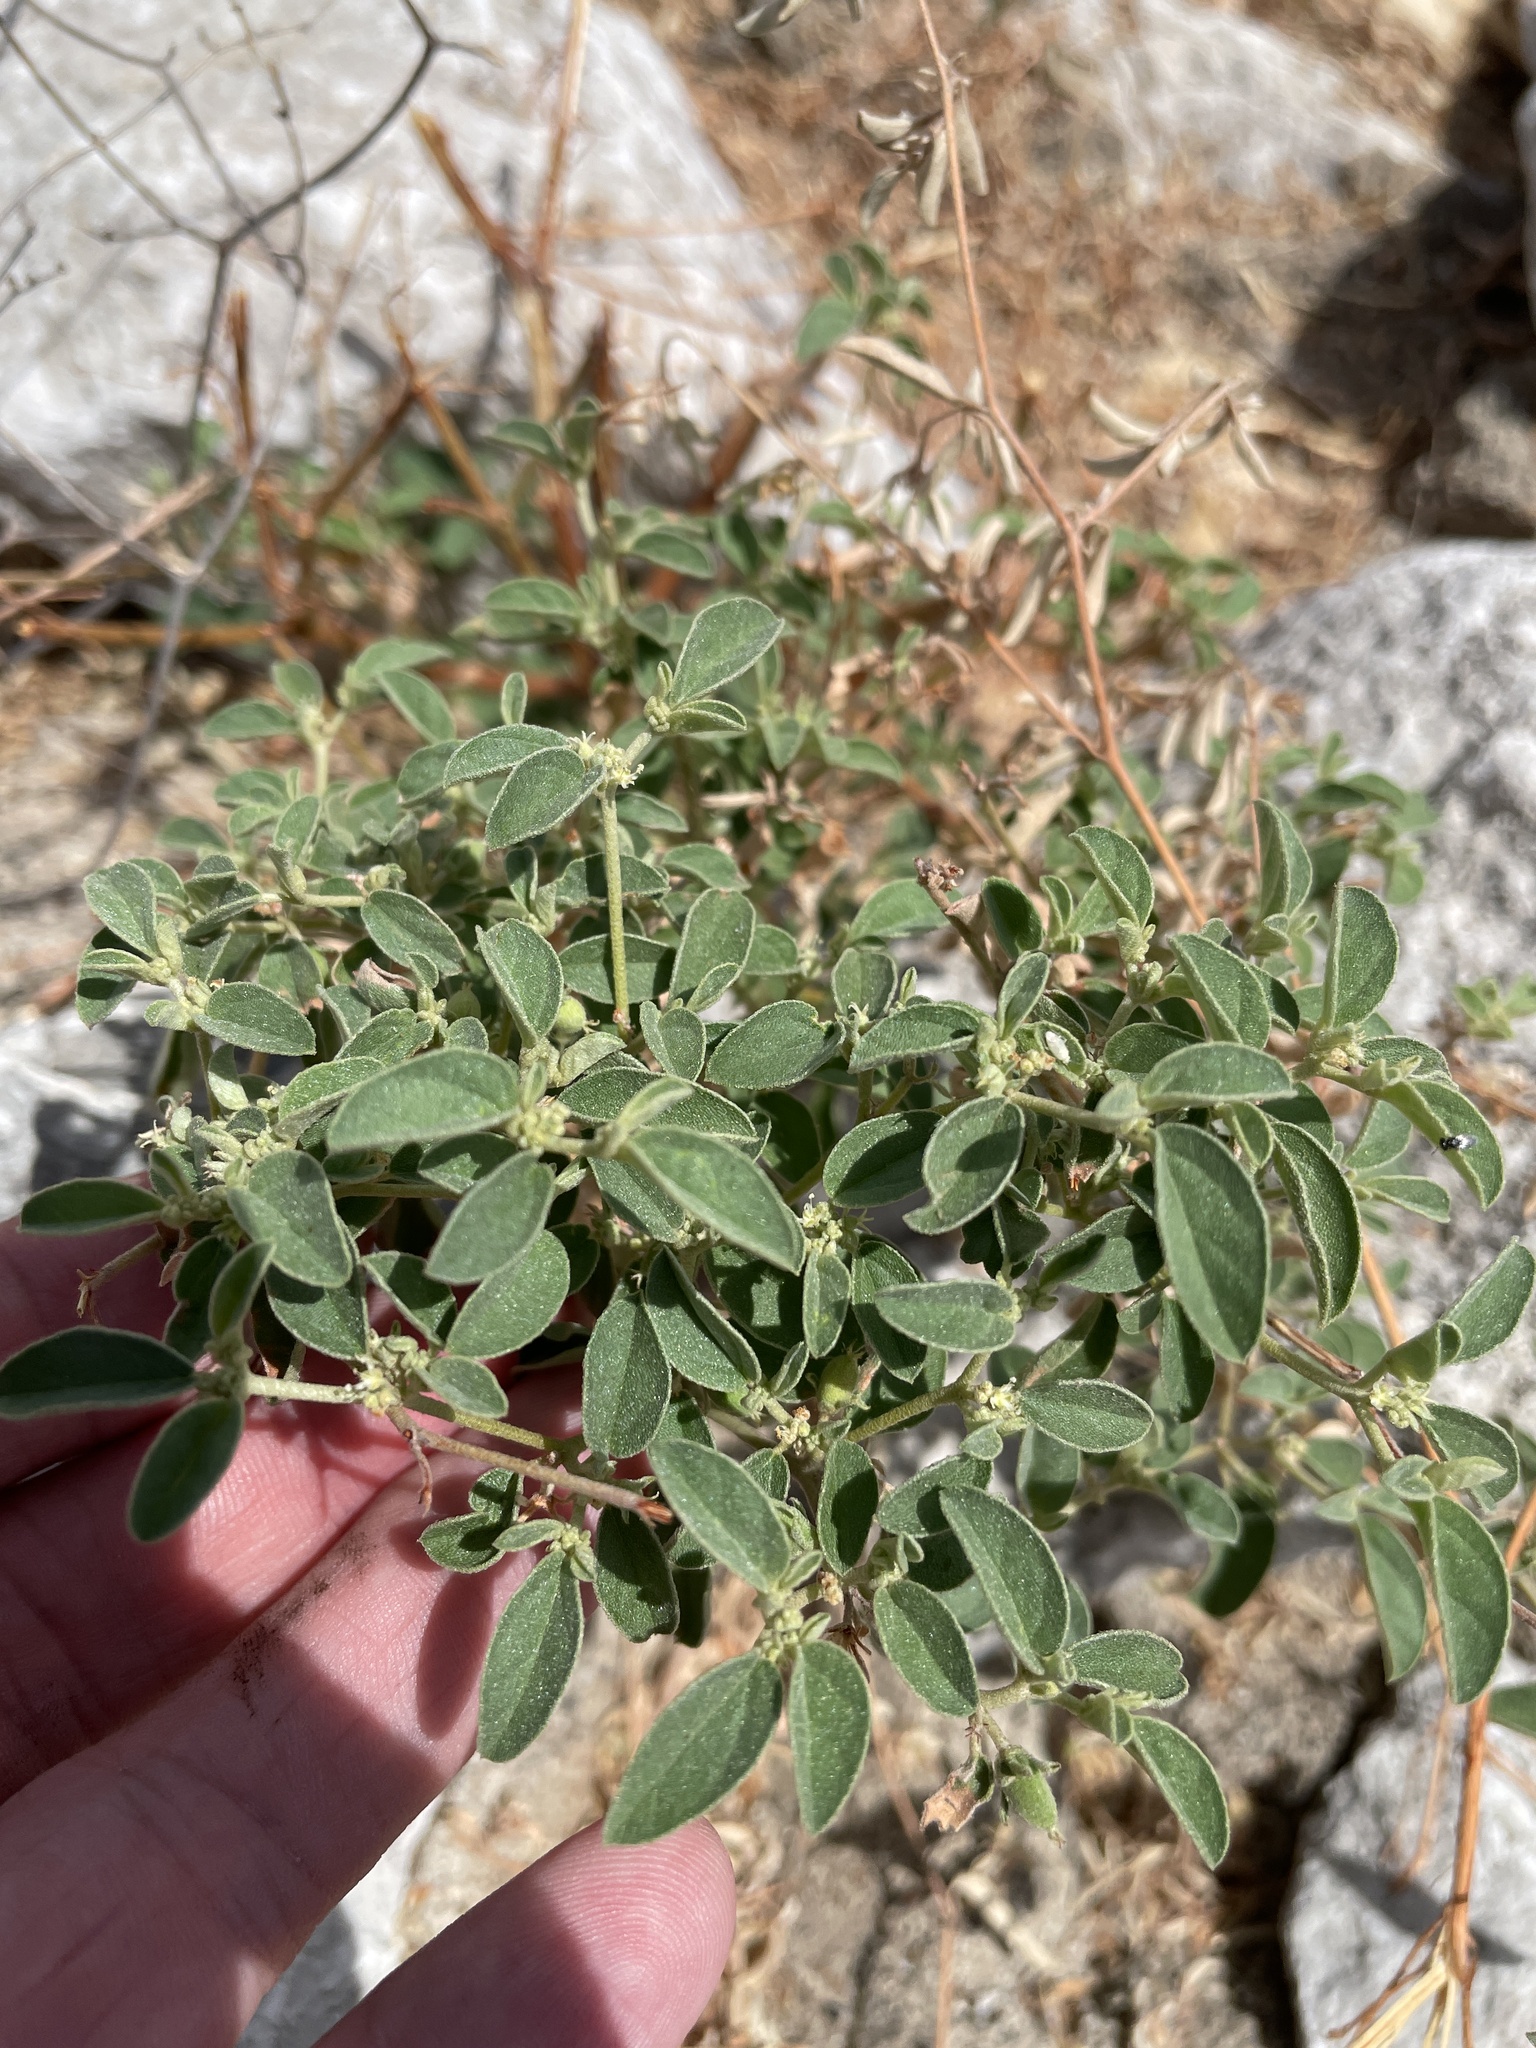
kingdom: Plantae
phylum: Tracheophyta
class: Magnoliopsida
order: Malpighiales
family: Euphorbiaceae
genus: Croton
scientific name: Croton monanthogynus
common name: One-seed croton
